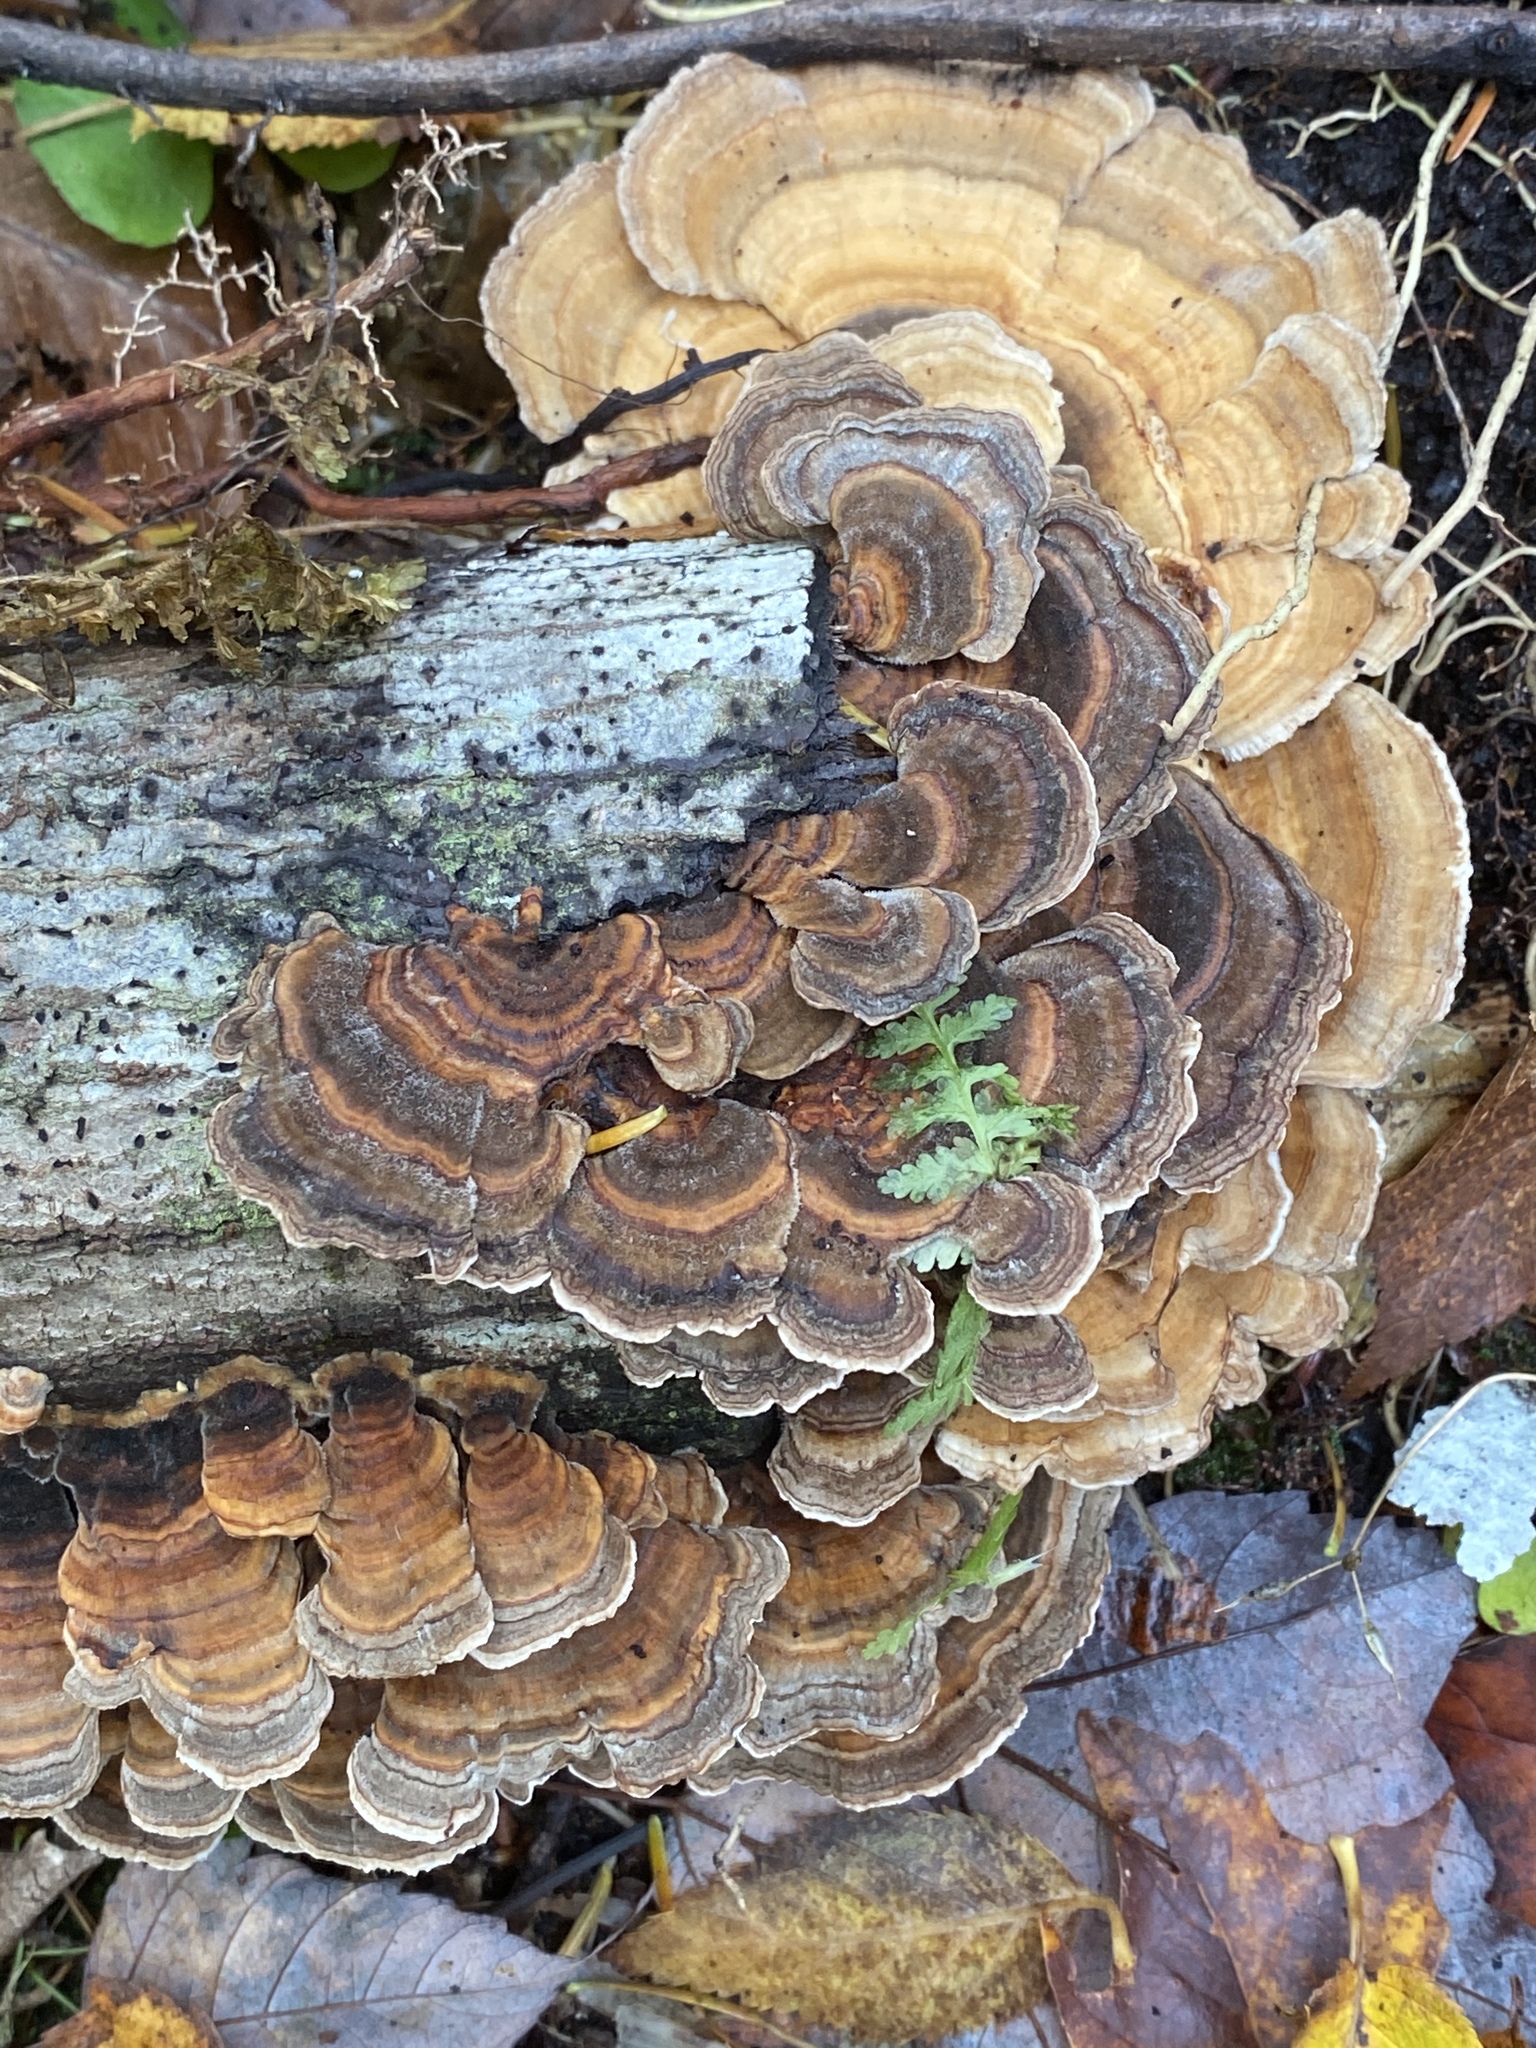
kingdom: Fungi
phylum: Basidiomycota
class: Agaricomycetes
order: Polyporales
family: Polyporaceae
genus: Trametes
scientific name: Trametes versicolor
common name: Turkeytail
